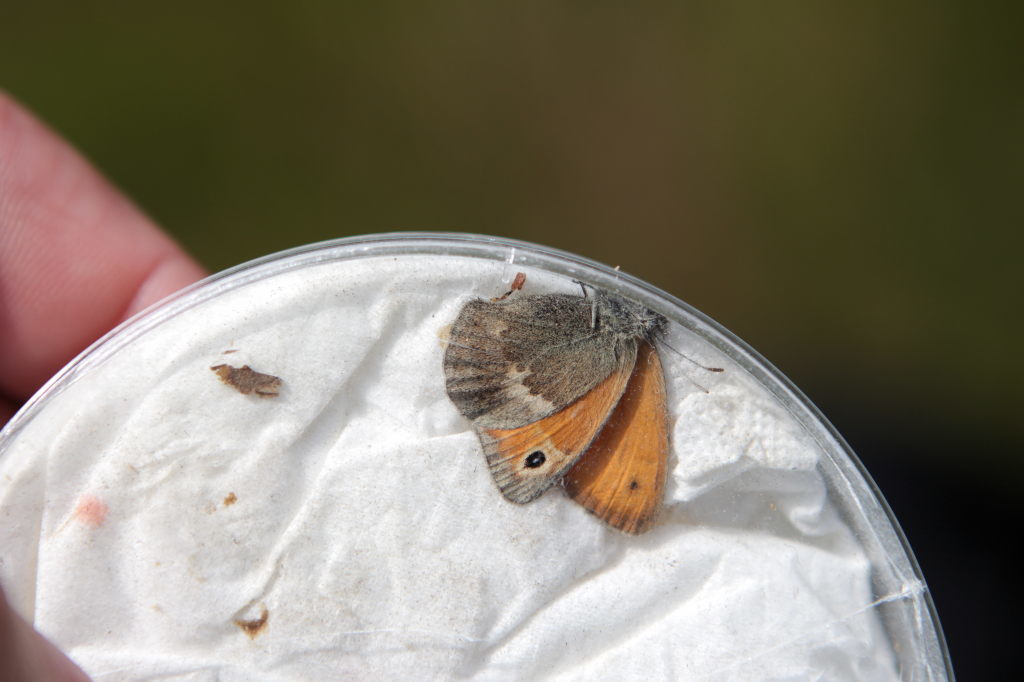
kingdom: Animalia
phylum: Arthropoda
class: Insecta
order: Lepidoptera
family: Nymphalidae
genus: Coenonympha
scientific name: Coenonympha pamphilus
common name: Small heath
